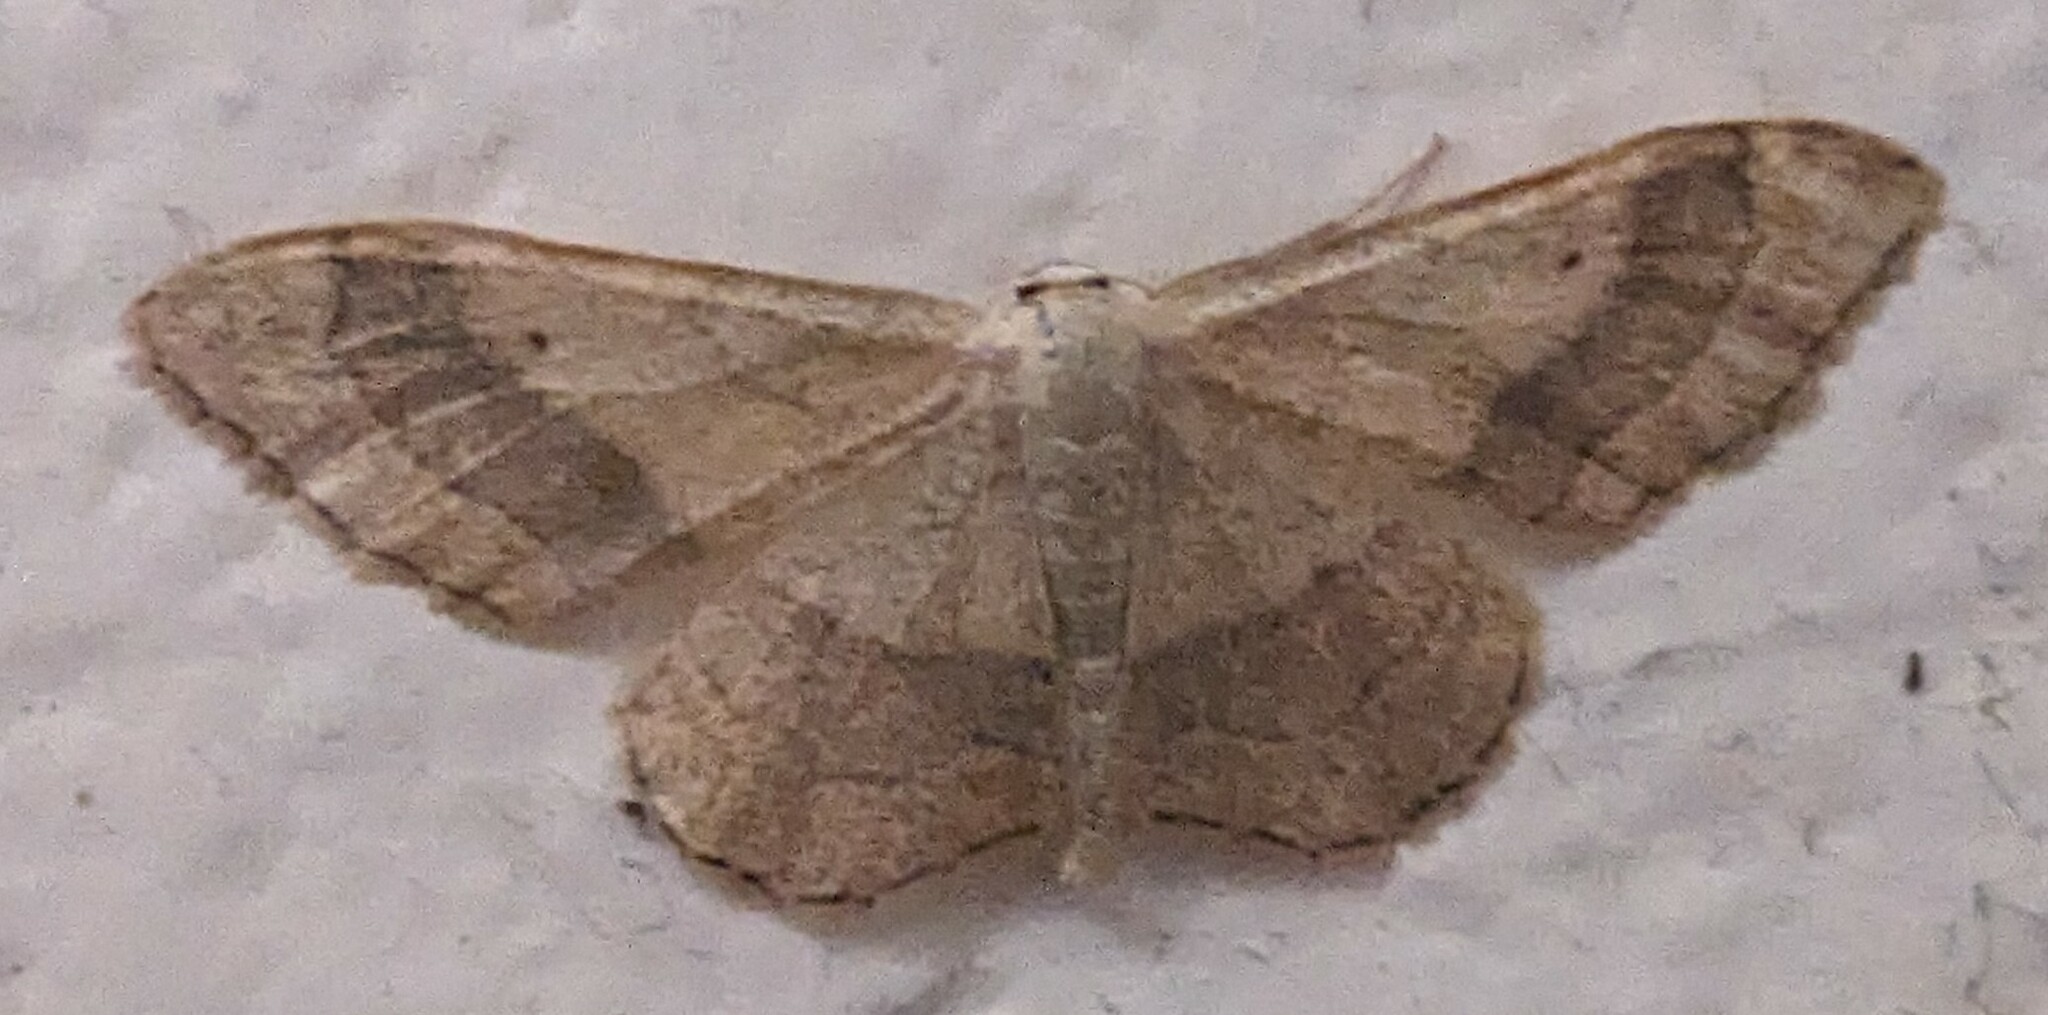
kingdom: Animalia
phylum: Arthropoda
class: Insecta
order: Lepidoptera
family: Geometridae
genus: Idaea
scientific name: Idaea aversata
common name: Riband wave
